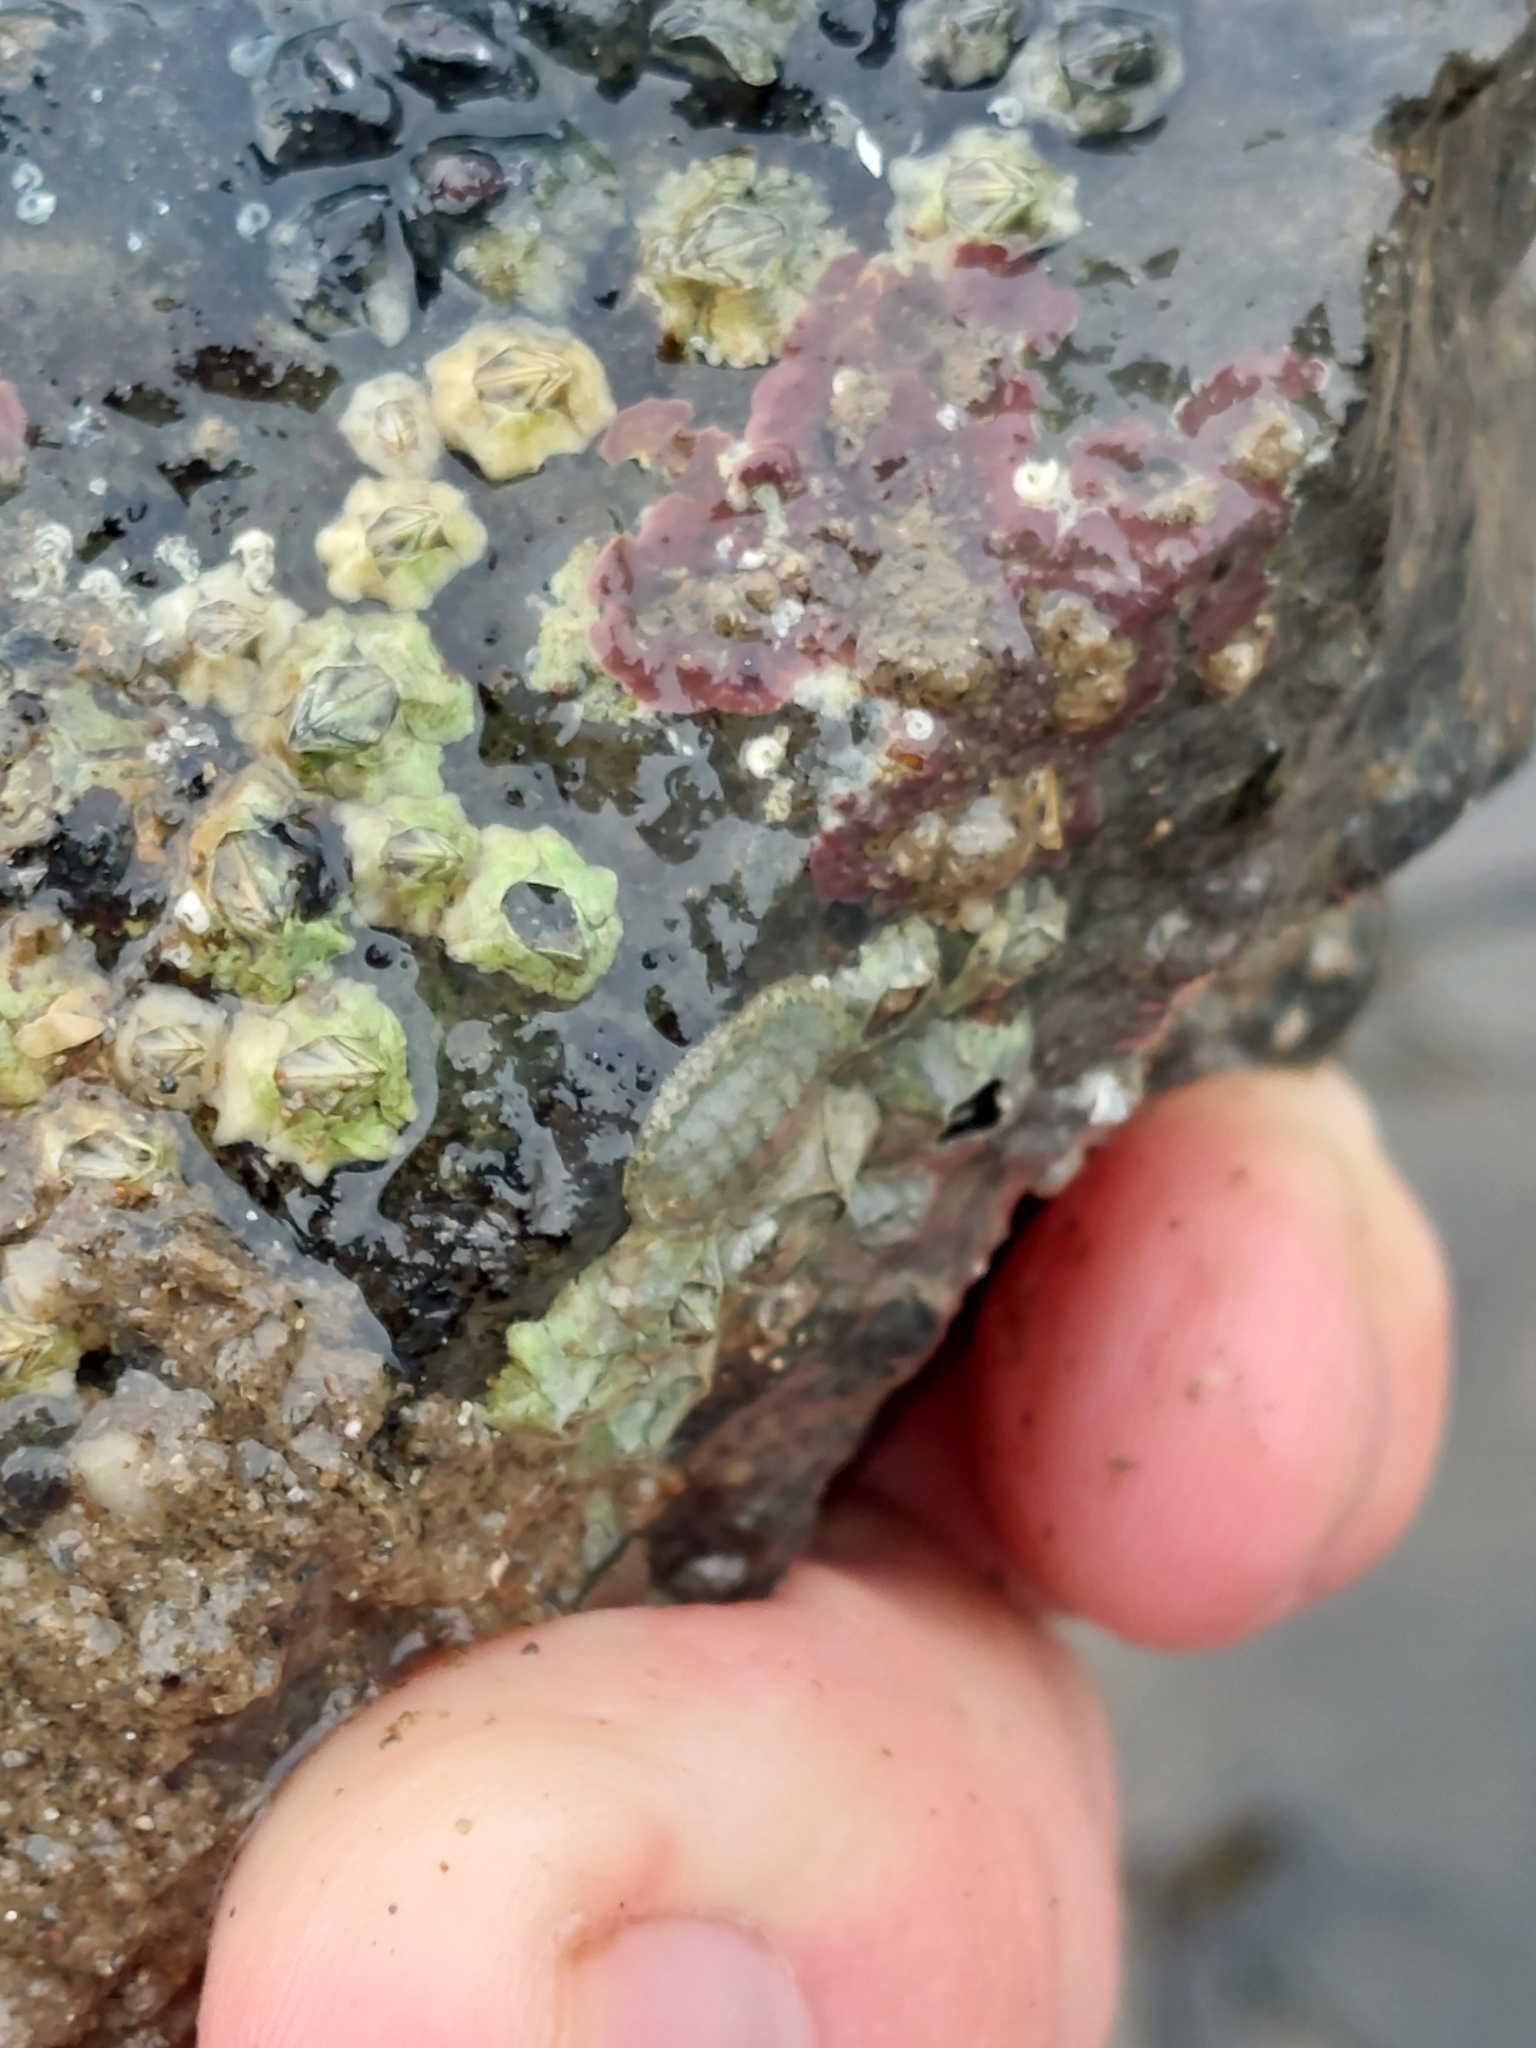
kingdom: Animalia
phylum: Mollusca
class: Polyplacophora
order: Chitonida
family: Tonicellidae
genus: Lepidochitona
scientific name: Lepidochitona cinerea
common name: Cinereous chiton
